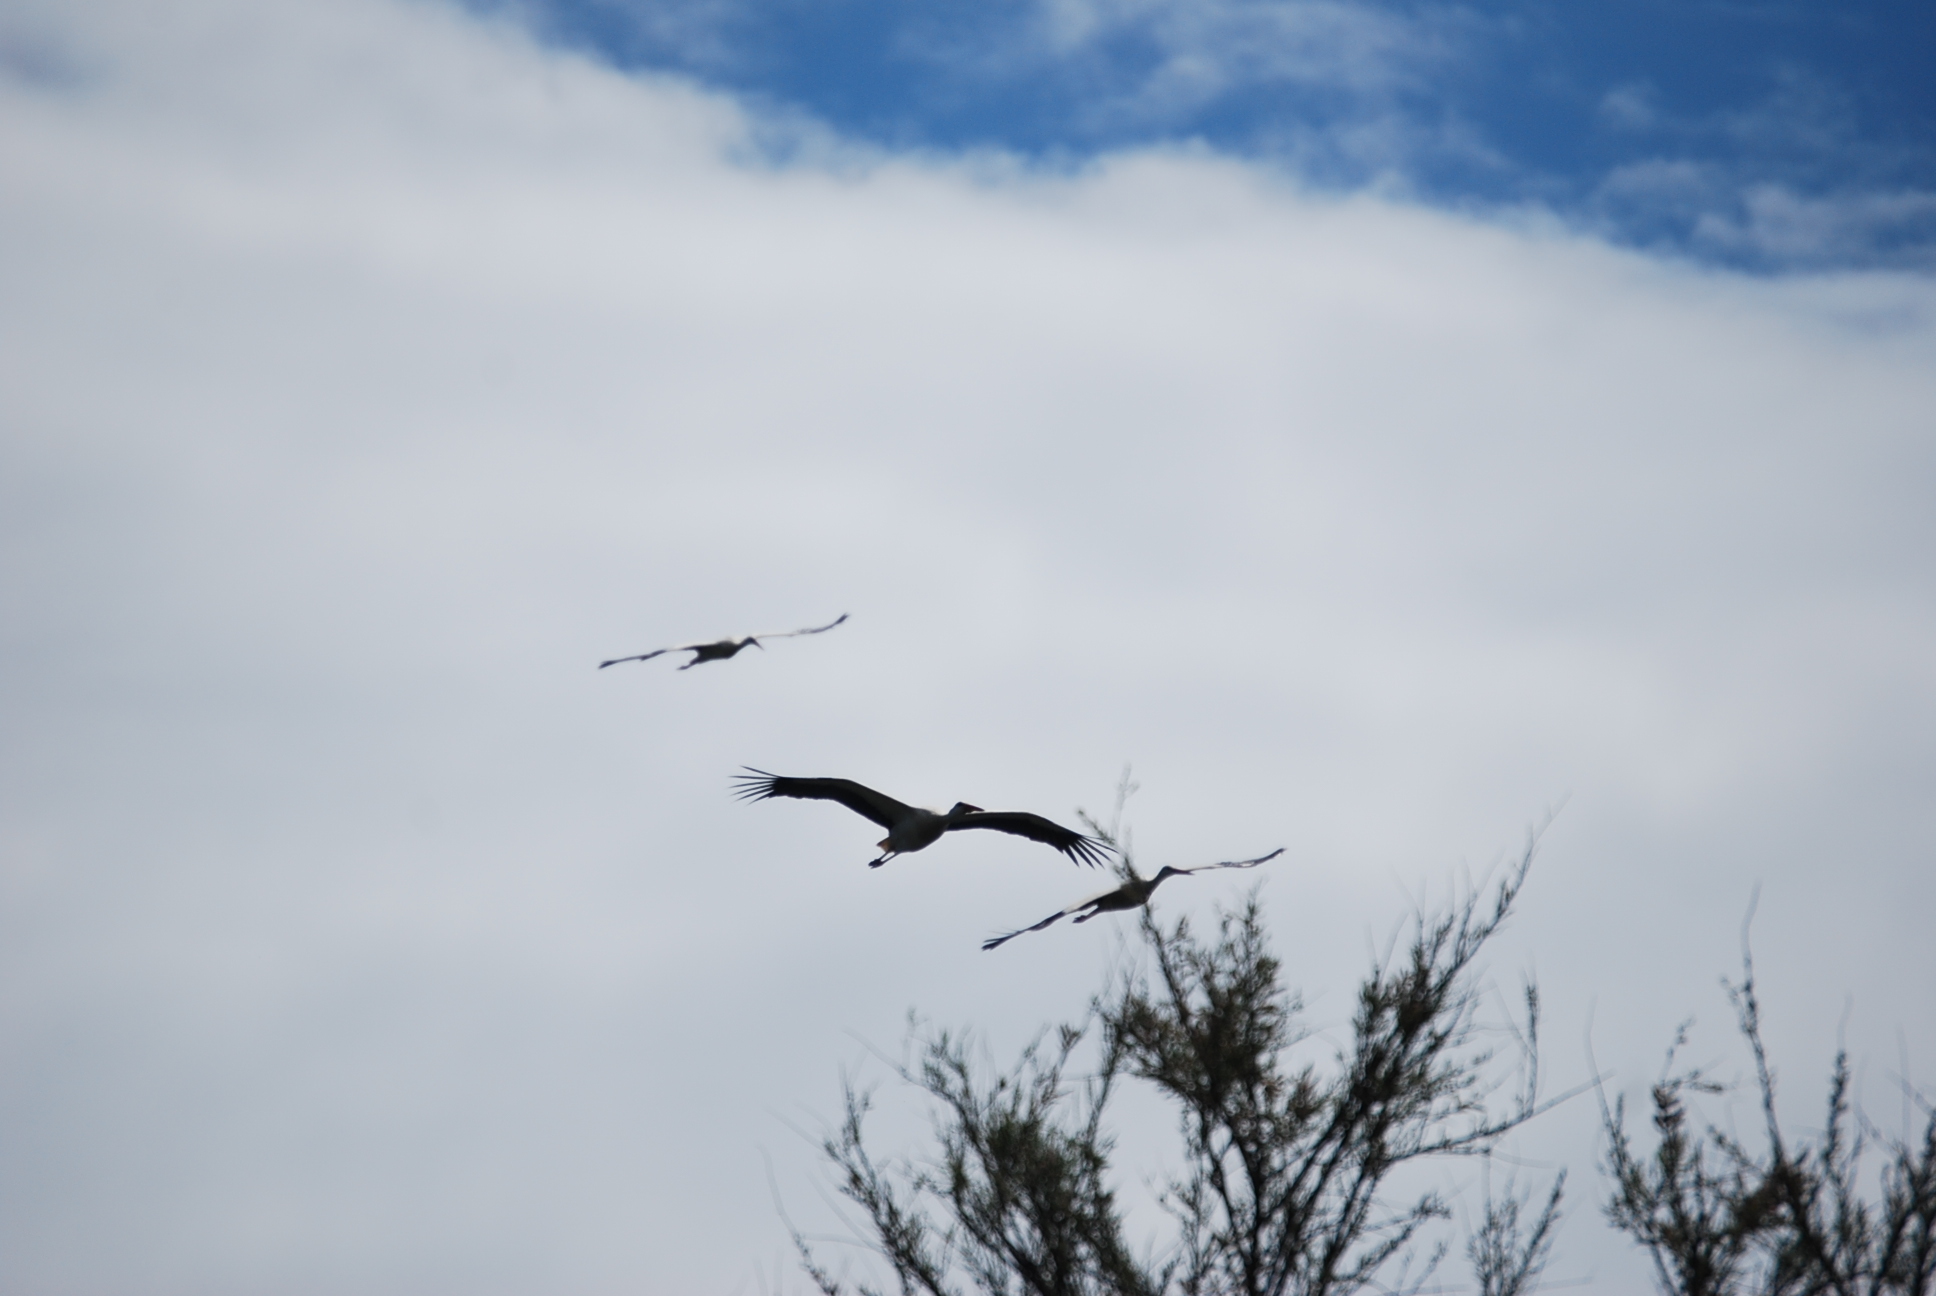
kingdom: Animalia
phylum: Chordata
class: Aves
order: Ciconiiformes
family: Ciconiidae
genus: Ciconia
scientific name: Ciconia ciconia
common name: White stork
